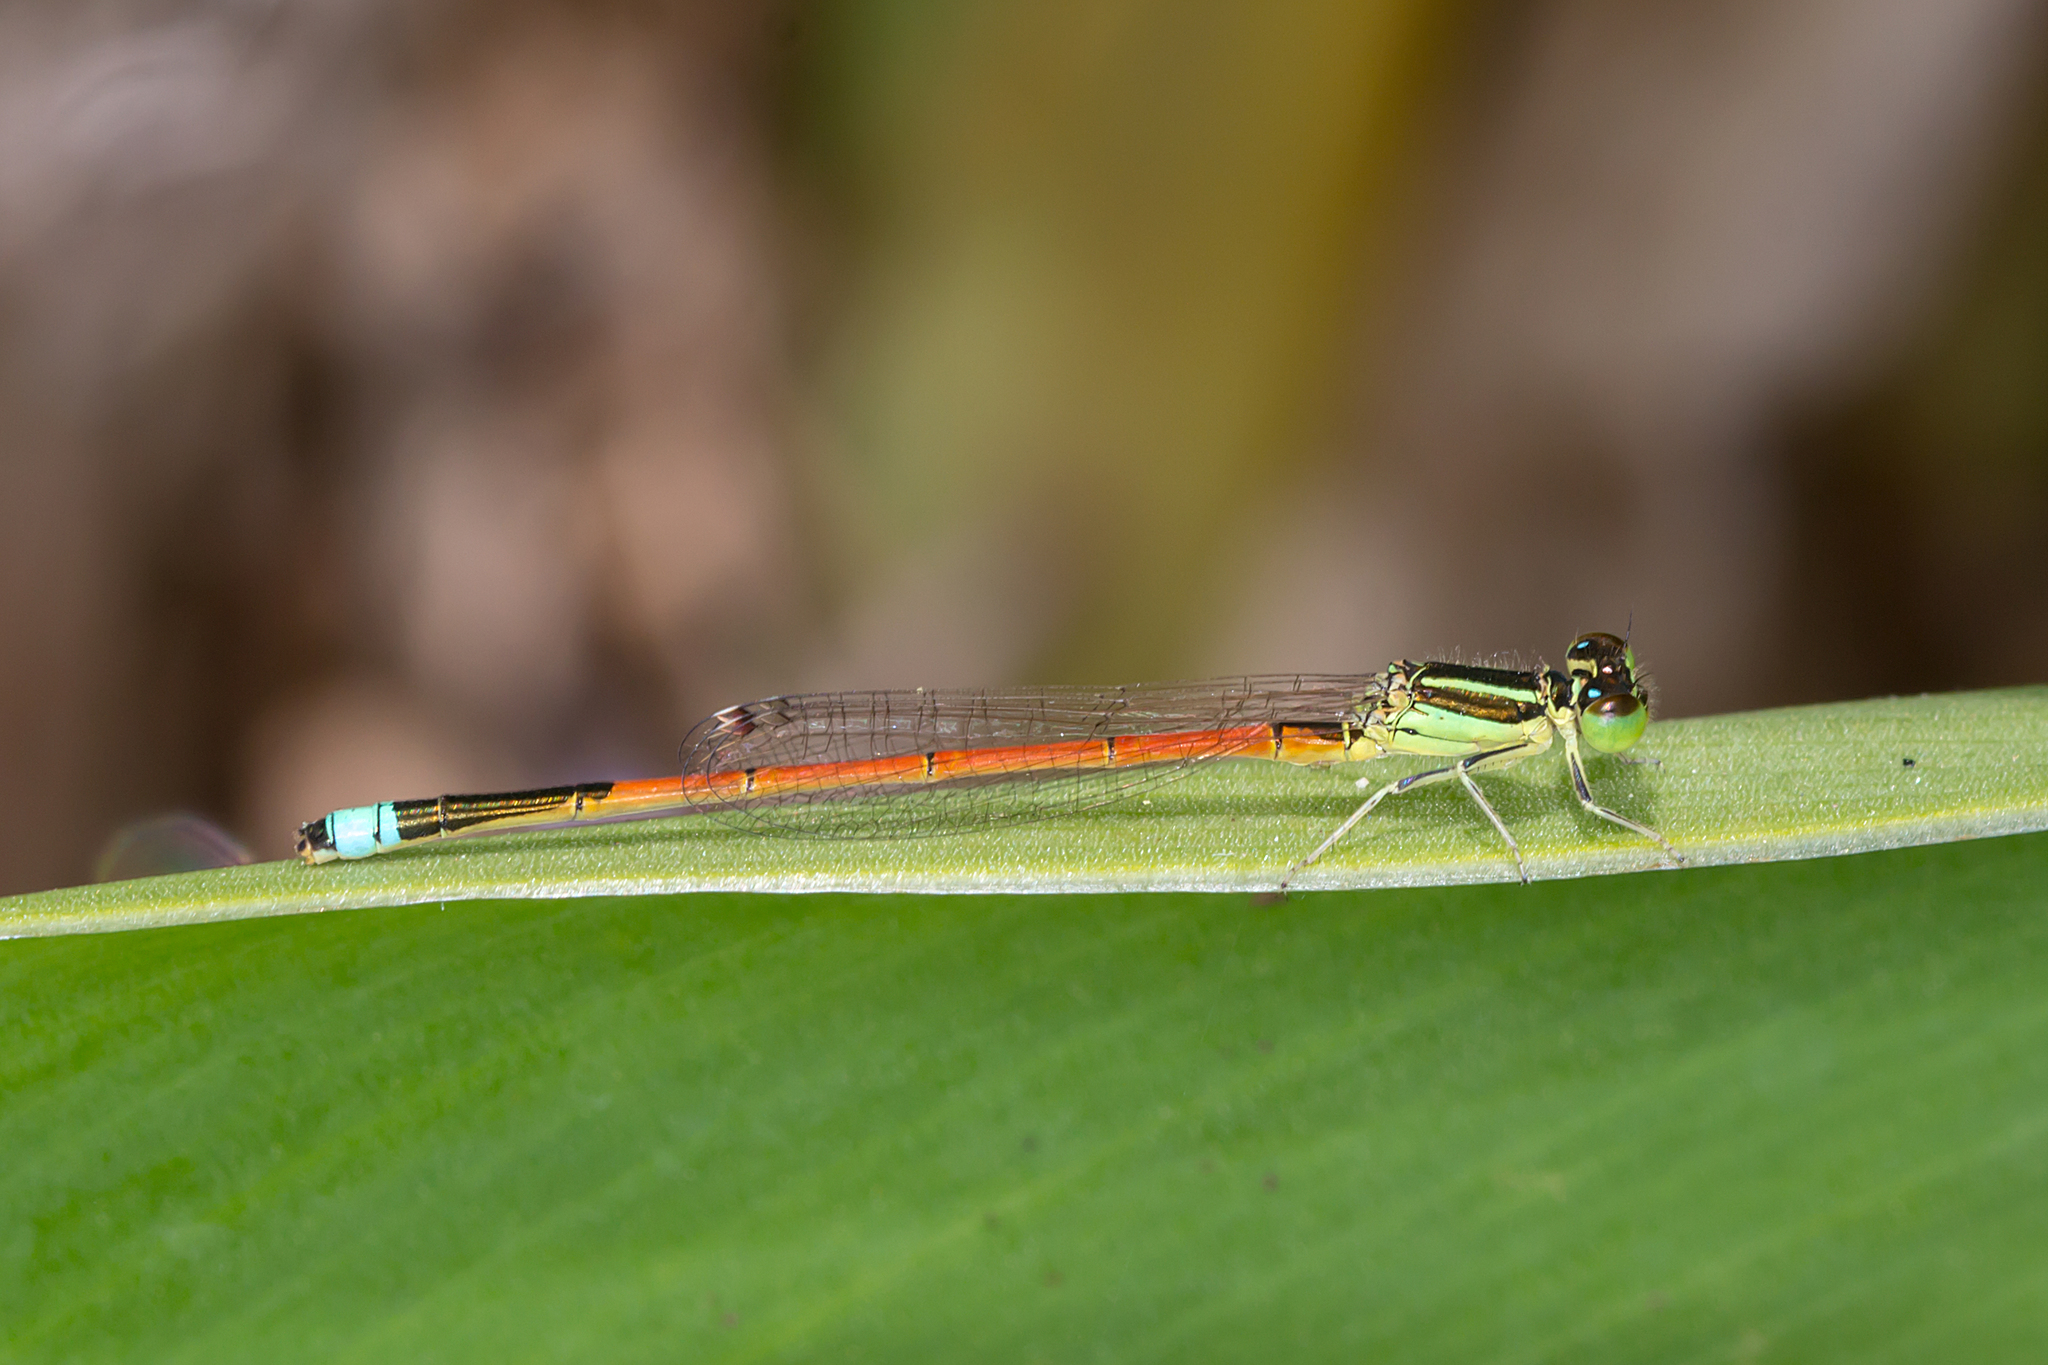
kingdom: Animalia
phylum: Arthropoda
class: Insecta
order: Odonata
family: Coenagrionidae
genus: Ischnura
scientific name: Ischnura aurora
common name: Gossamer damselfly
